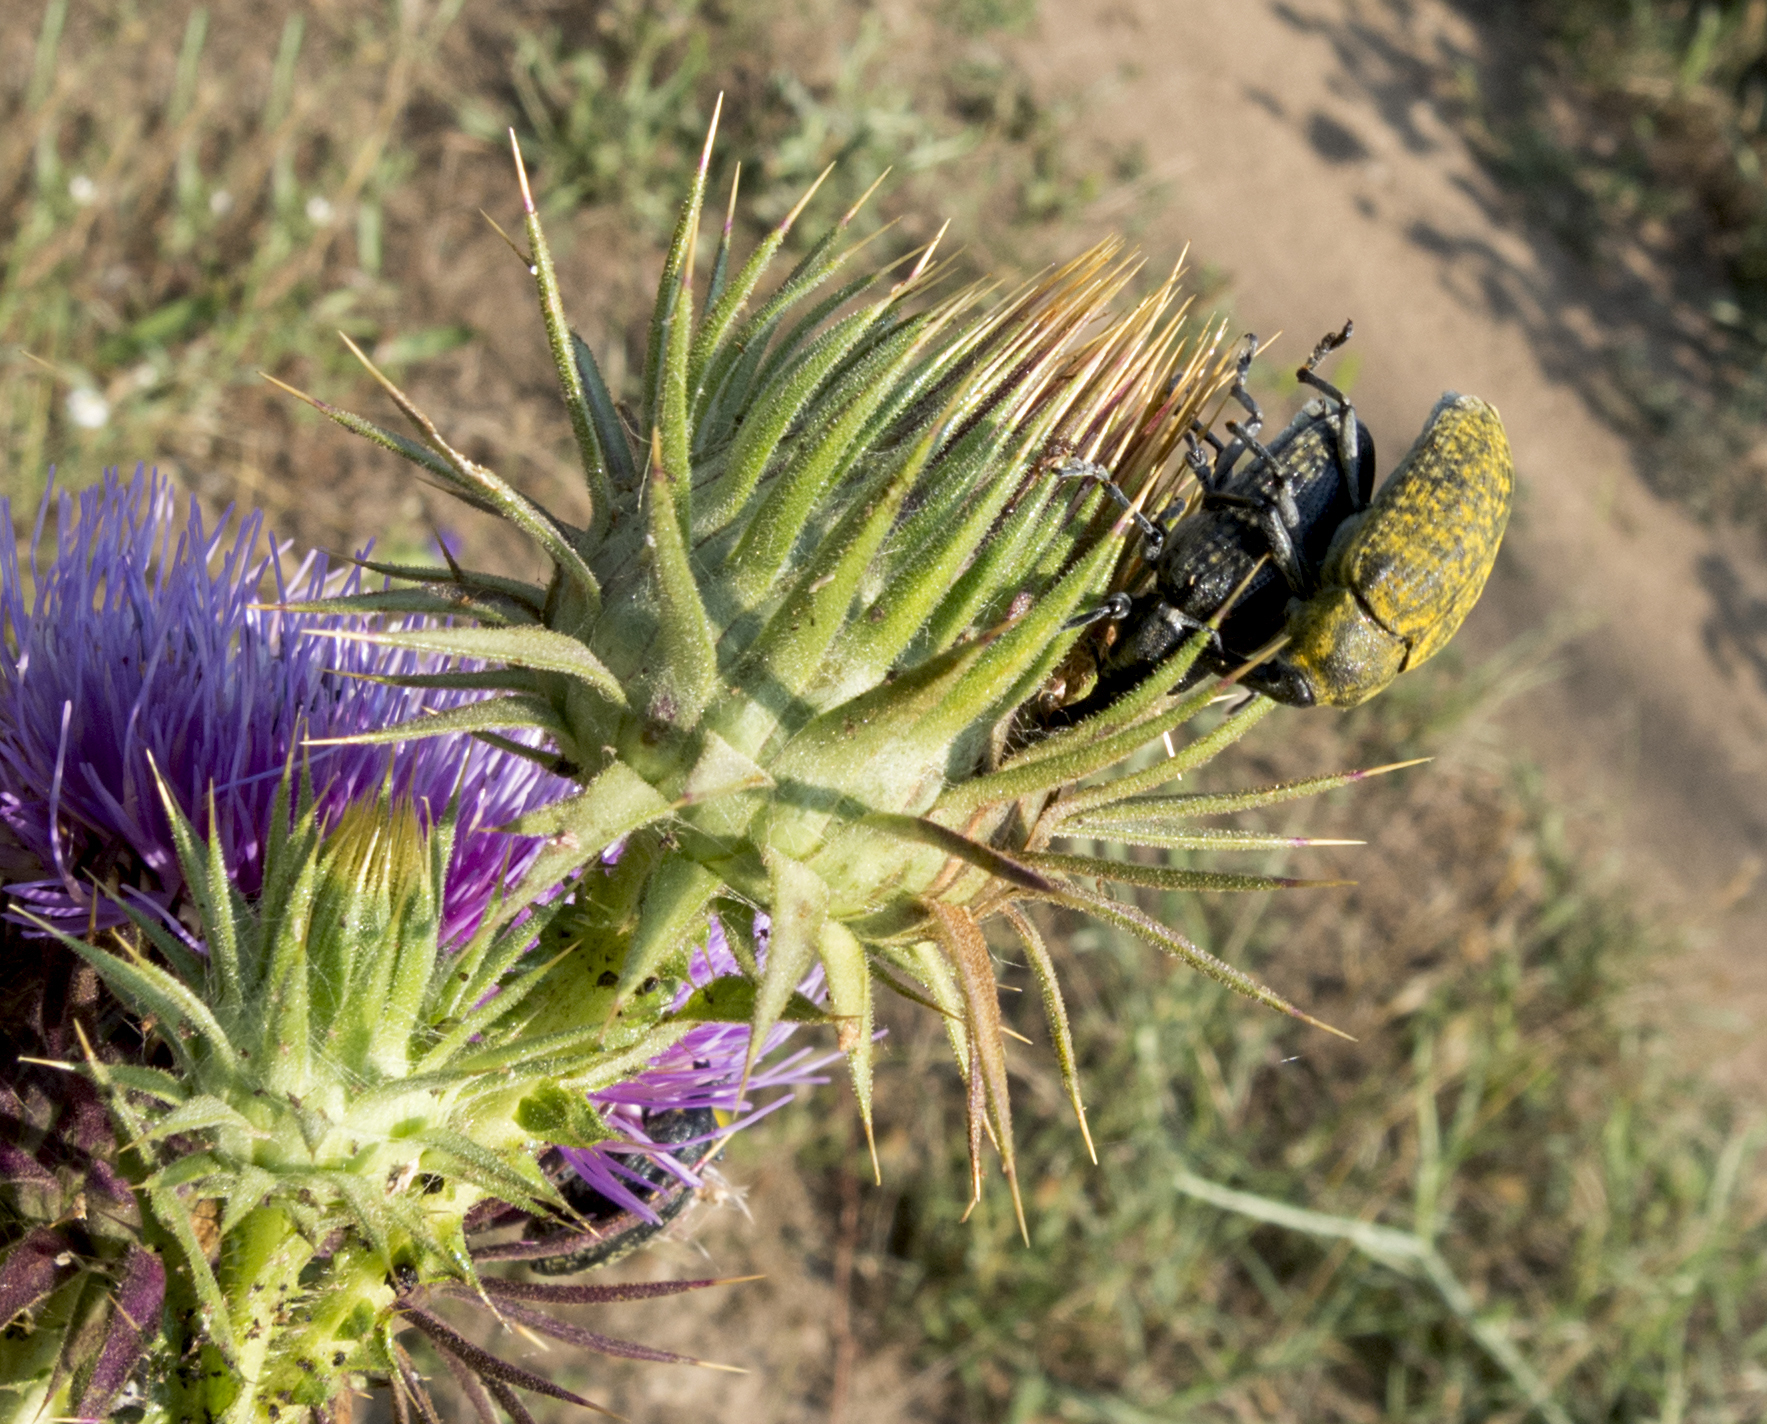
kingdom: Animalia
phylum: Arthropoda
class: Insecta
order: Coleoptera
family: Curculionidae
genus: Larinus
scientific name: Larinus latus
